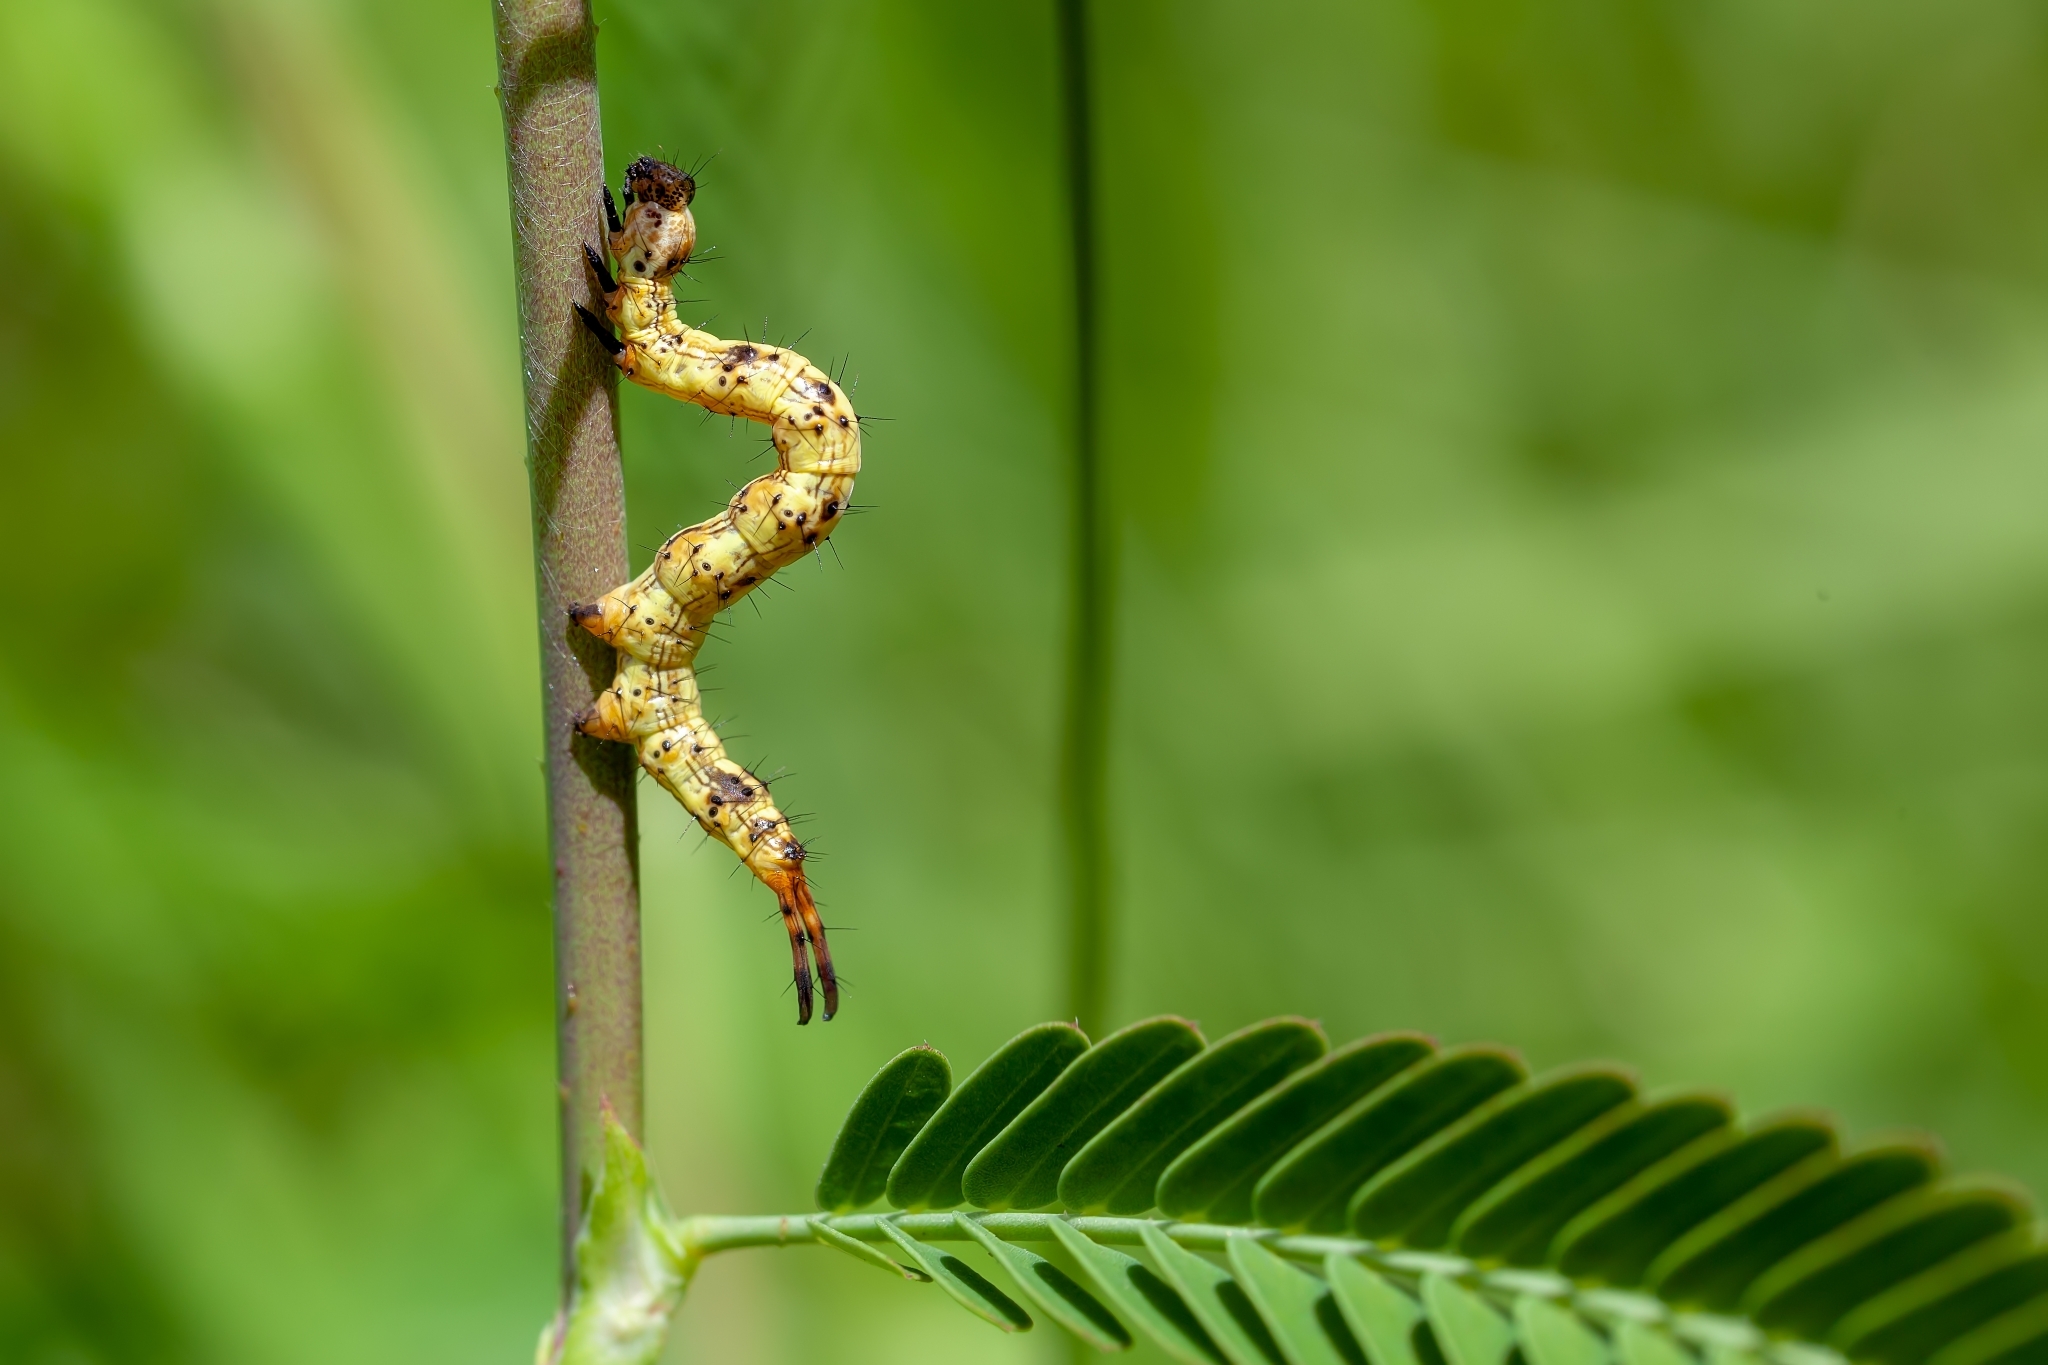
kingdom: Animalia
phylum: Arthropoda
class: Insecta
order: Lepidoptera
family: Erebidae
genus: Selenisa
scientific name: Selenisa sueroides
